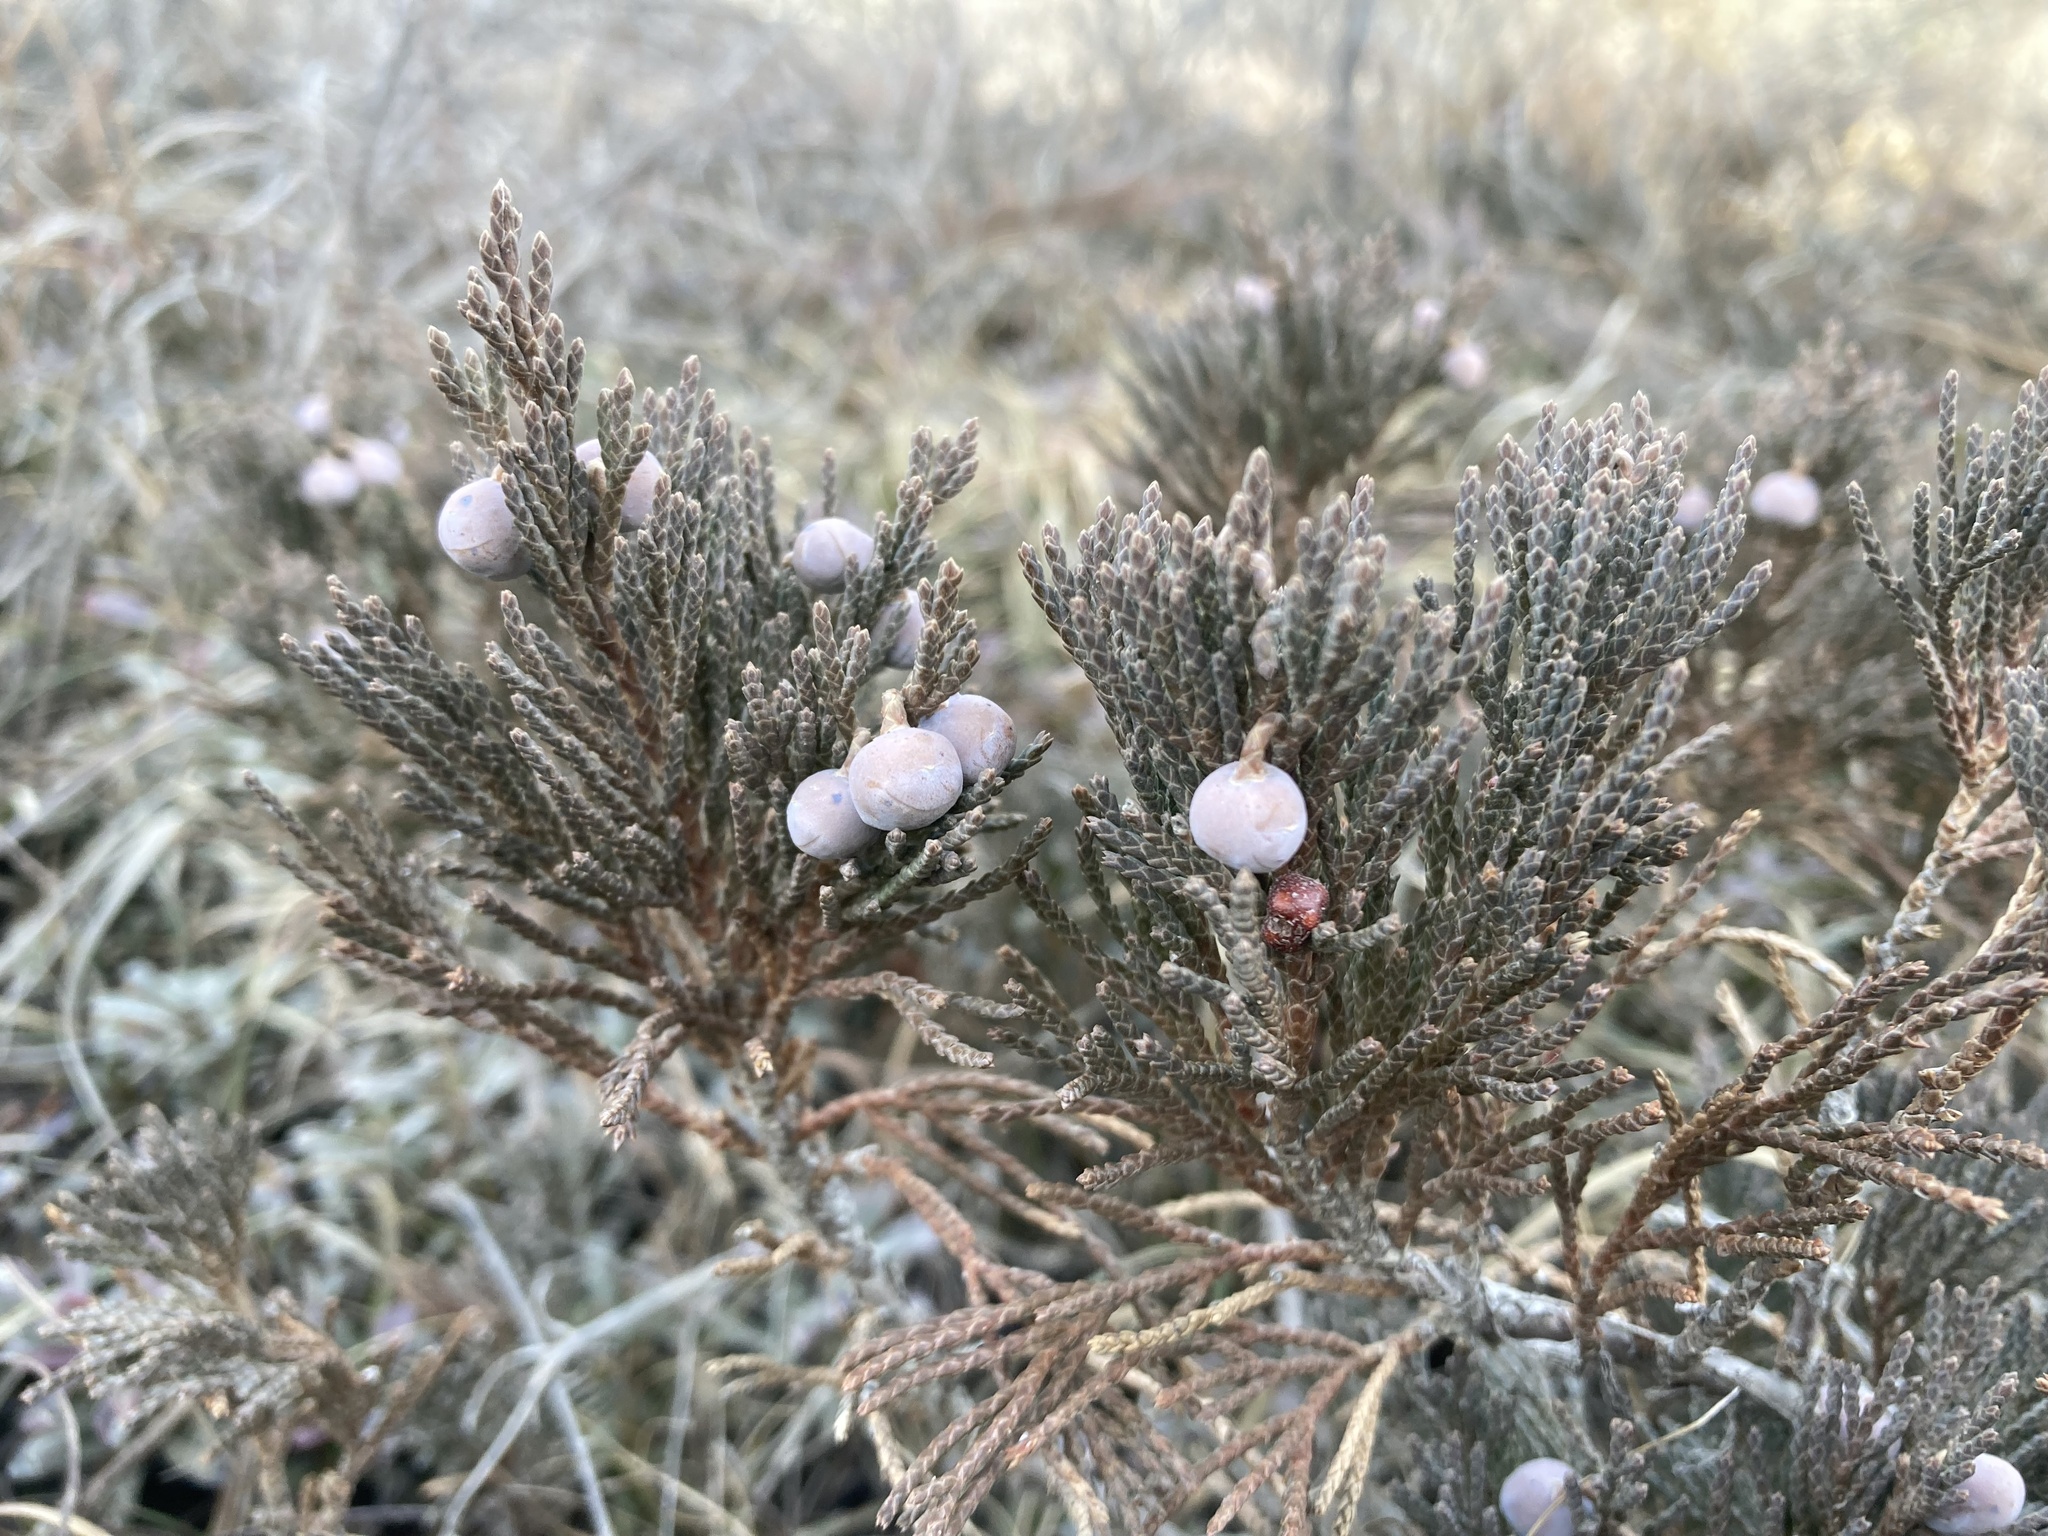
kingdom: Plantae
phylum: Tracheophyta
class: Pinopsida
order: Pinales
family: Cupressaceae
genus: Juniperus
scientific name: Juniperus horizontalis
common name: Creeping juniper
